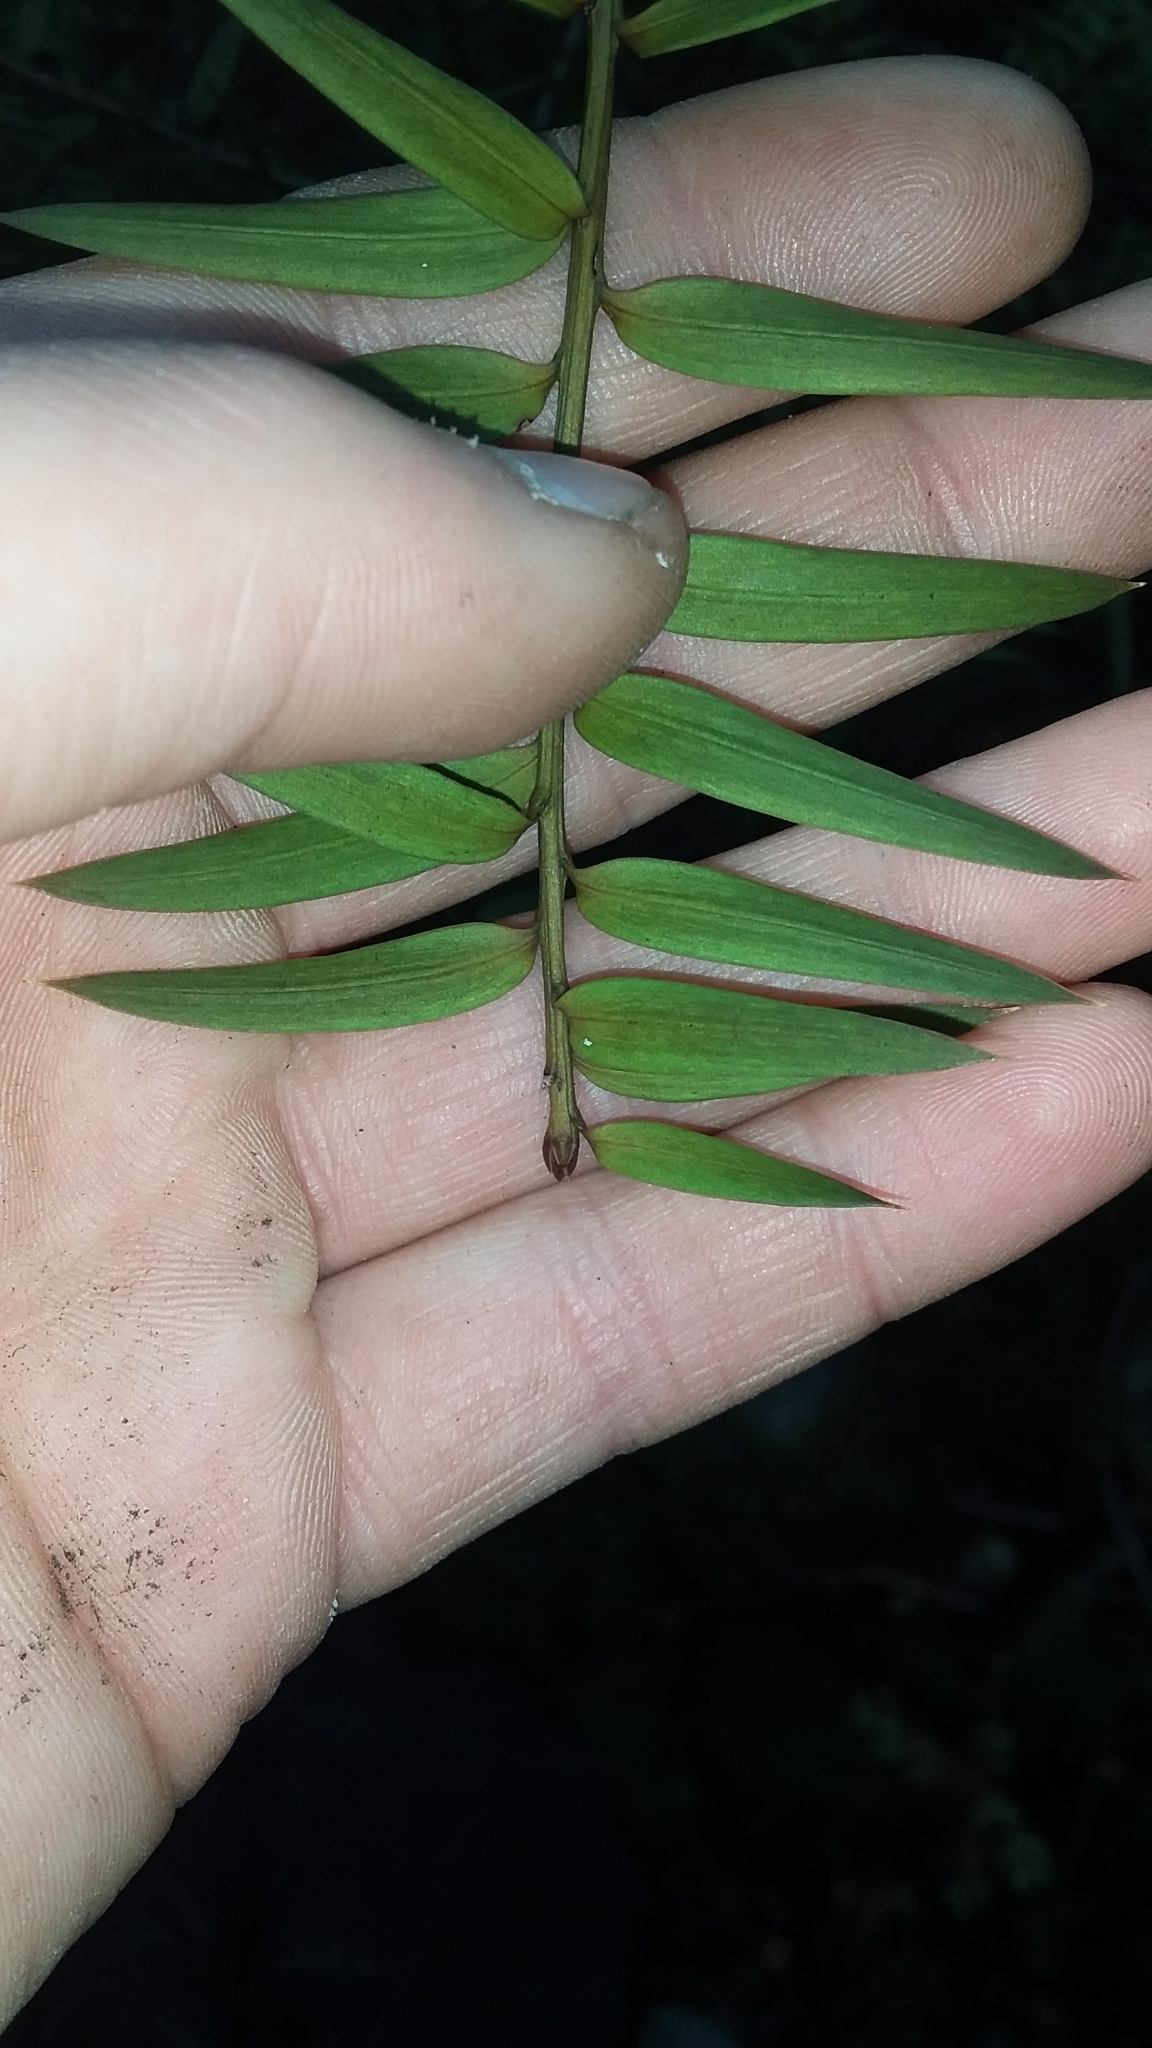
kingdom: Plantae
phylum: Tracheophyta
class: Pinopsida
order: Pinales
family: Podocarpaceae
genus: Podocarpus
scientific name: Podocarpus laetus
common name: Hall's totara
